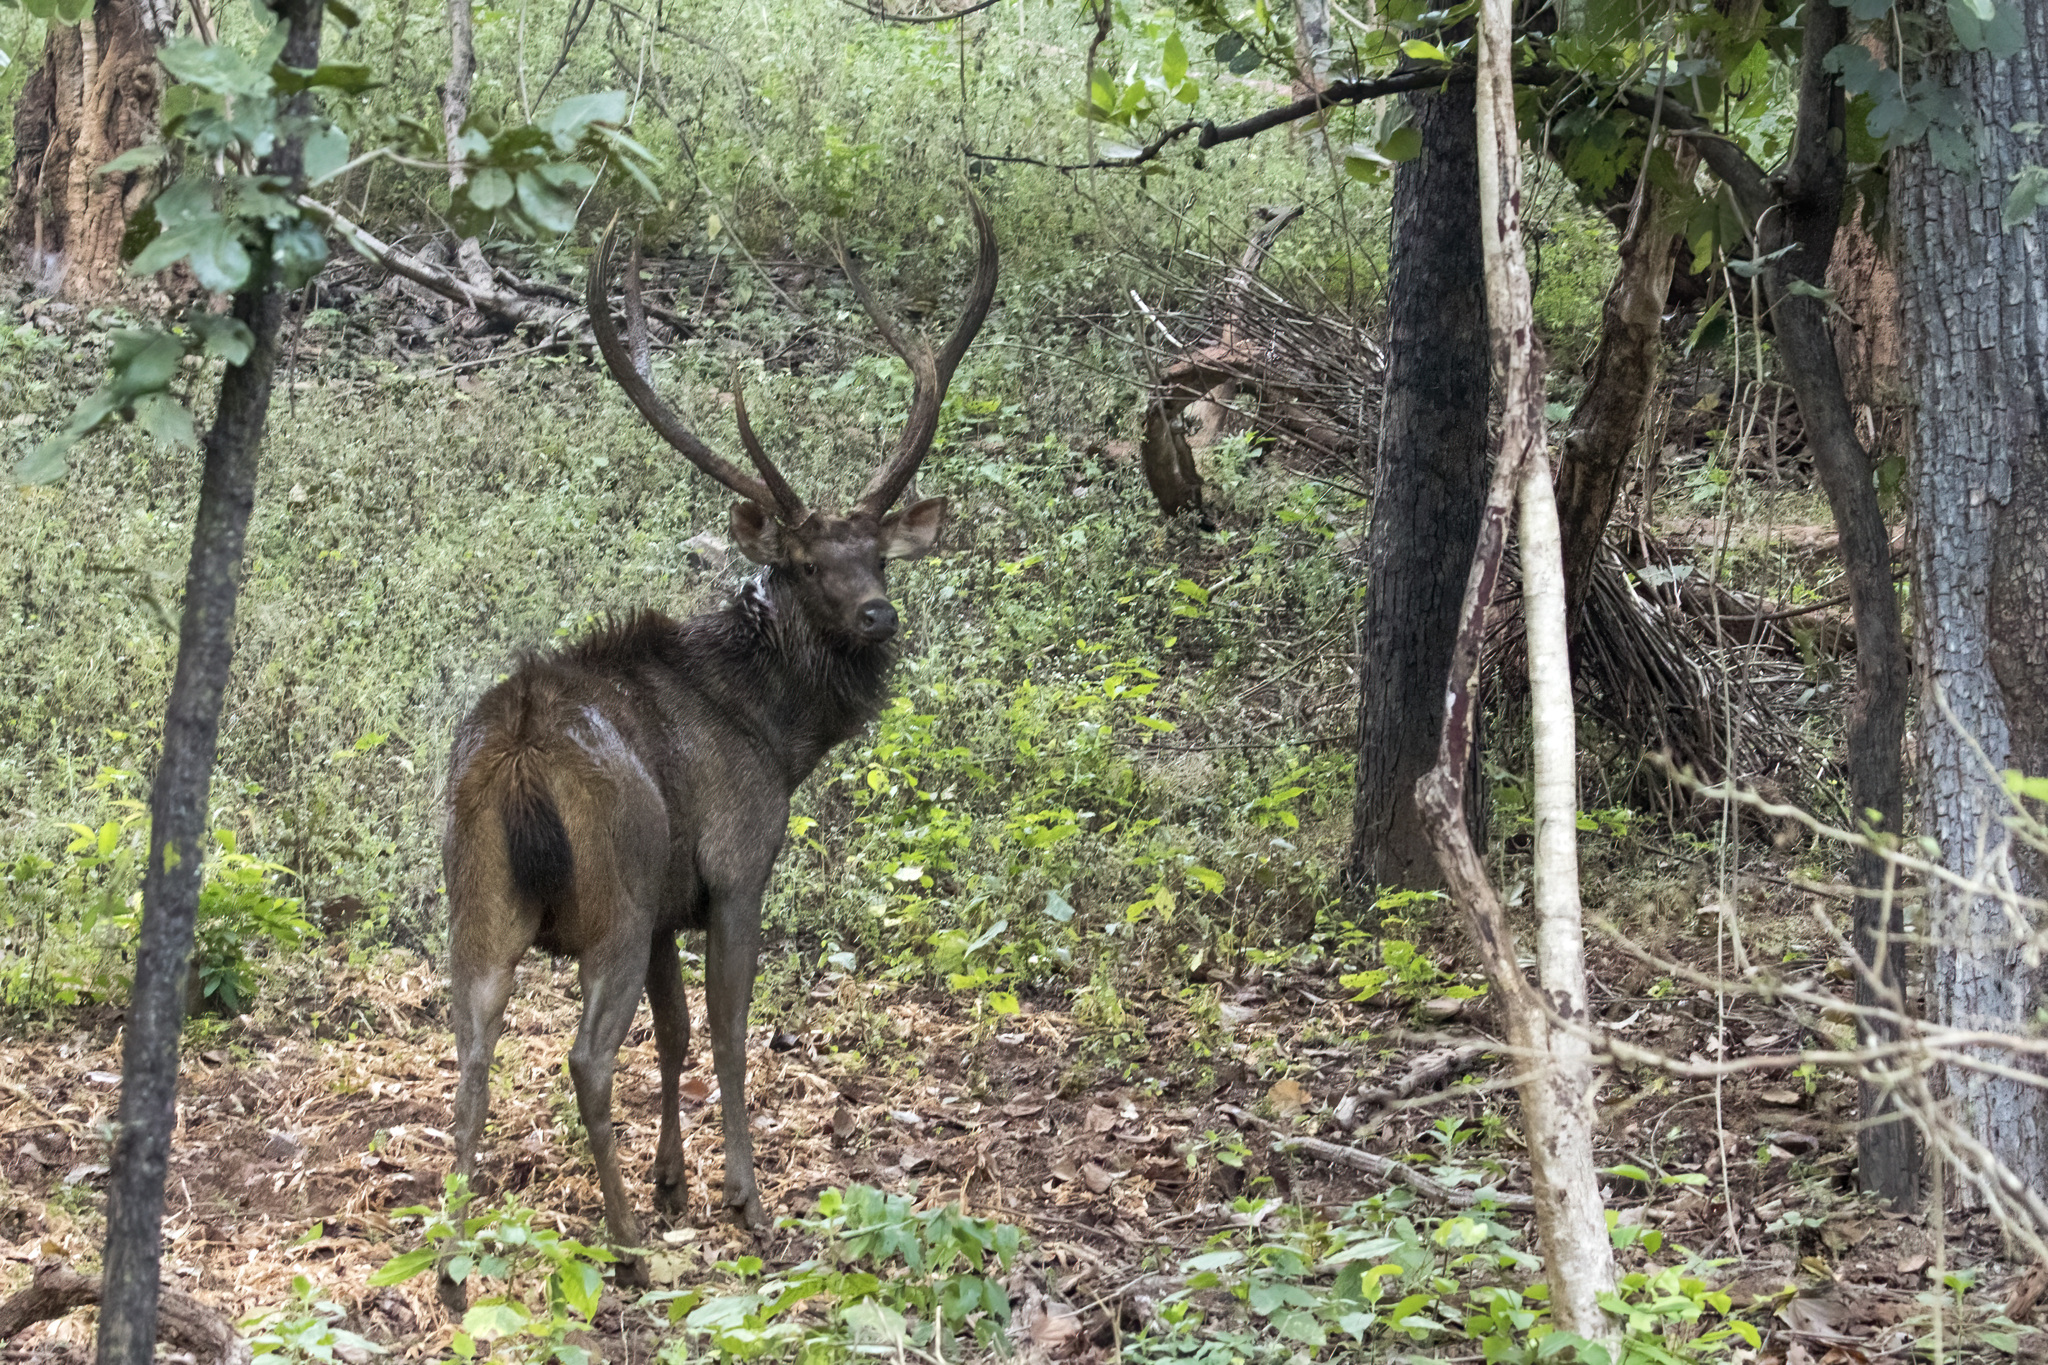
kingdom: Animalia
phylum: Chordata
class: Mammalia
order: Artiodactyla
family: Cervidae
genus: Rusa
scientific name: Rusa unicolor
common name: Sambar
